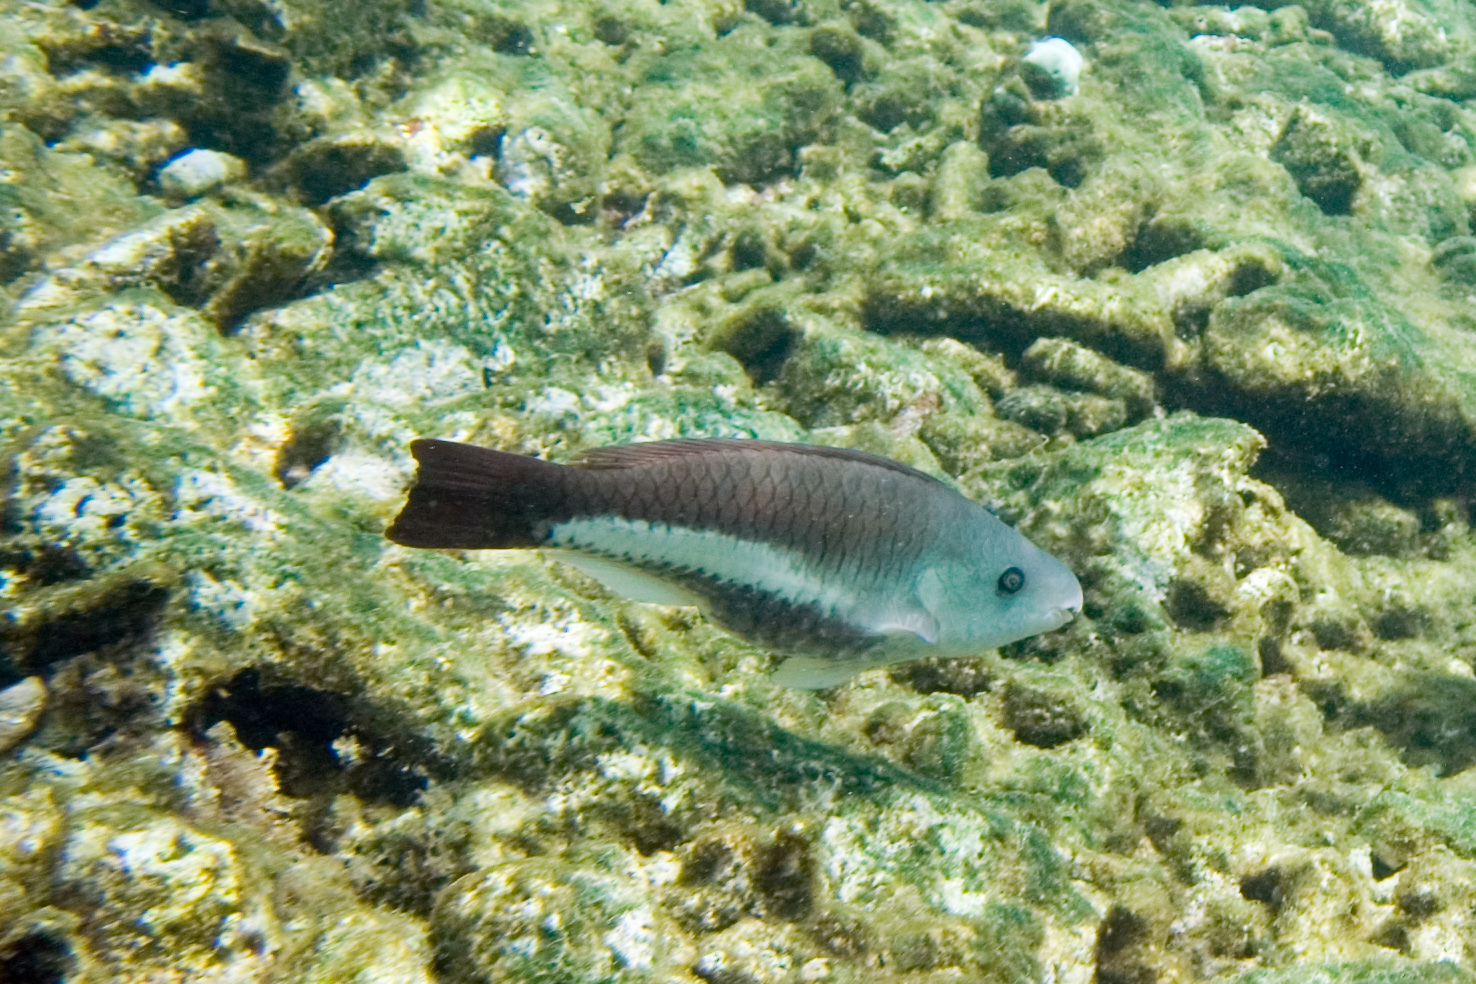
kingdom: Animalia
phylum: Chordata
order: Perciformes
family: Scaridae
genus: Scarus
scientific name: Scarus vetula
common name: Queen parrotfish
